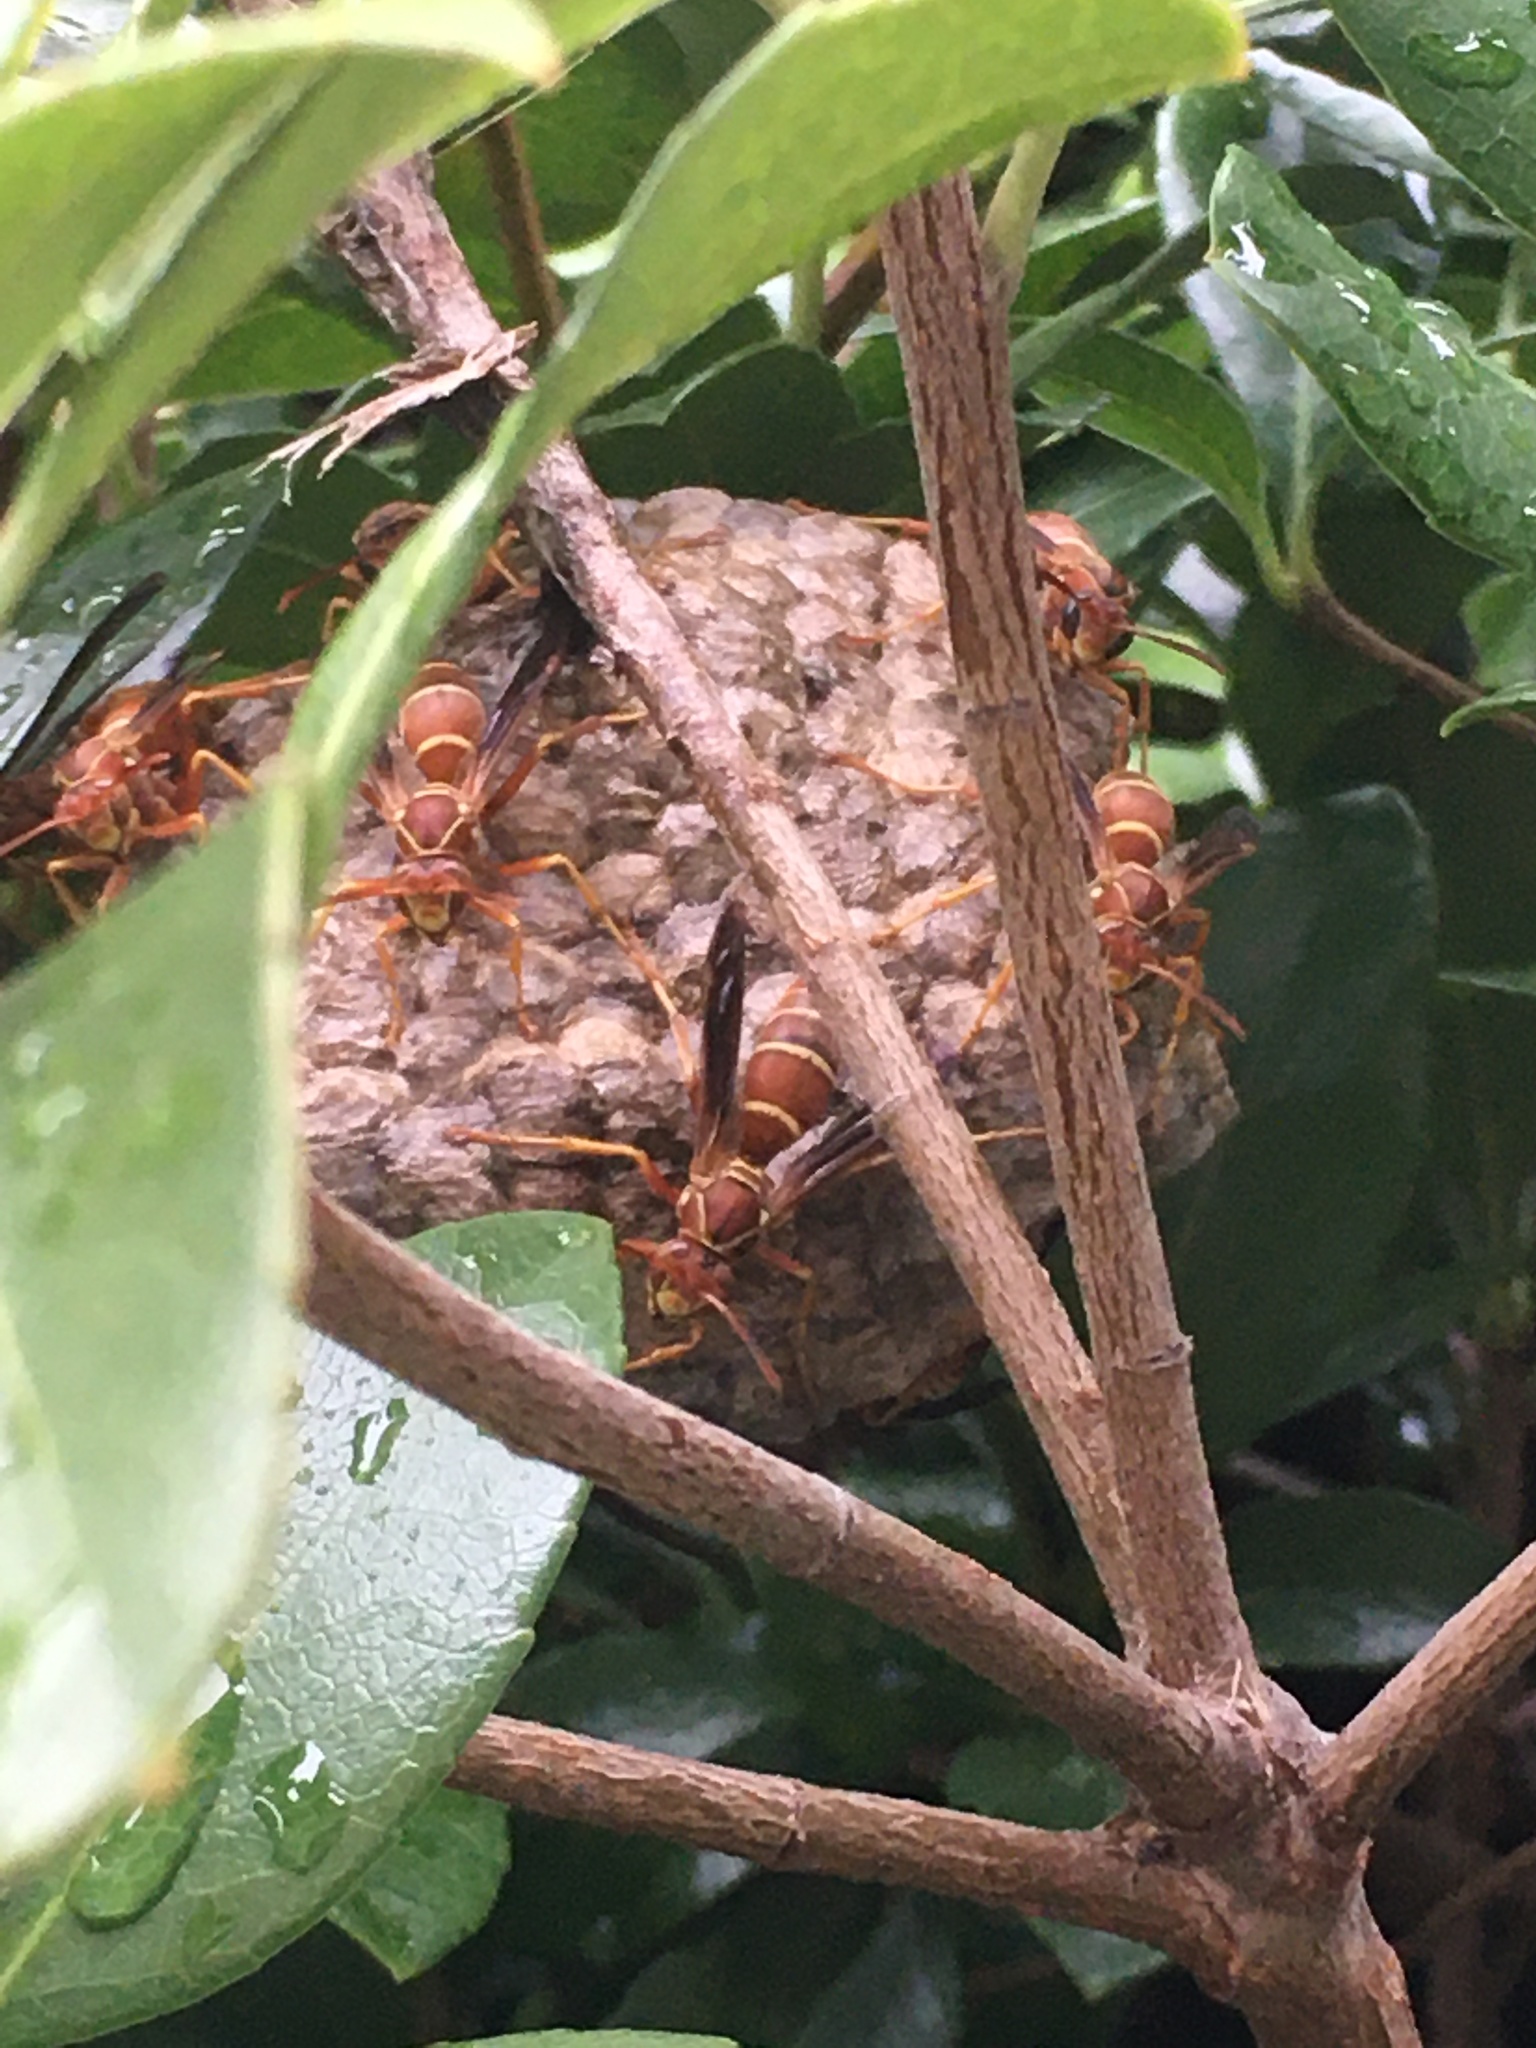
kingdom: Animalia
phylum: Arthropoda
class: Insecta
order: Hymenoptera
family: Eumenidae
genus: Polistes
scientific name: Polistes bellicosus
